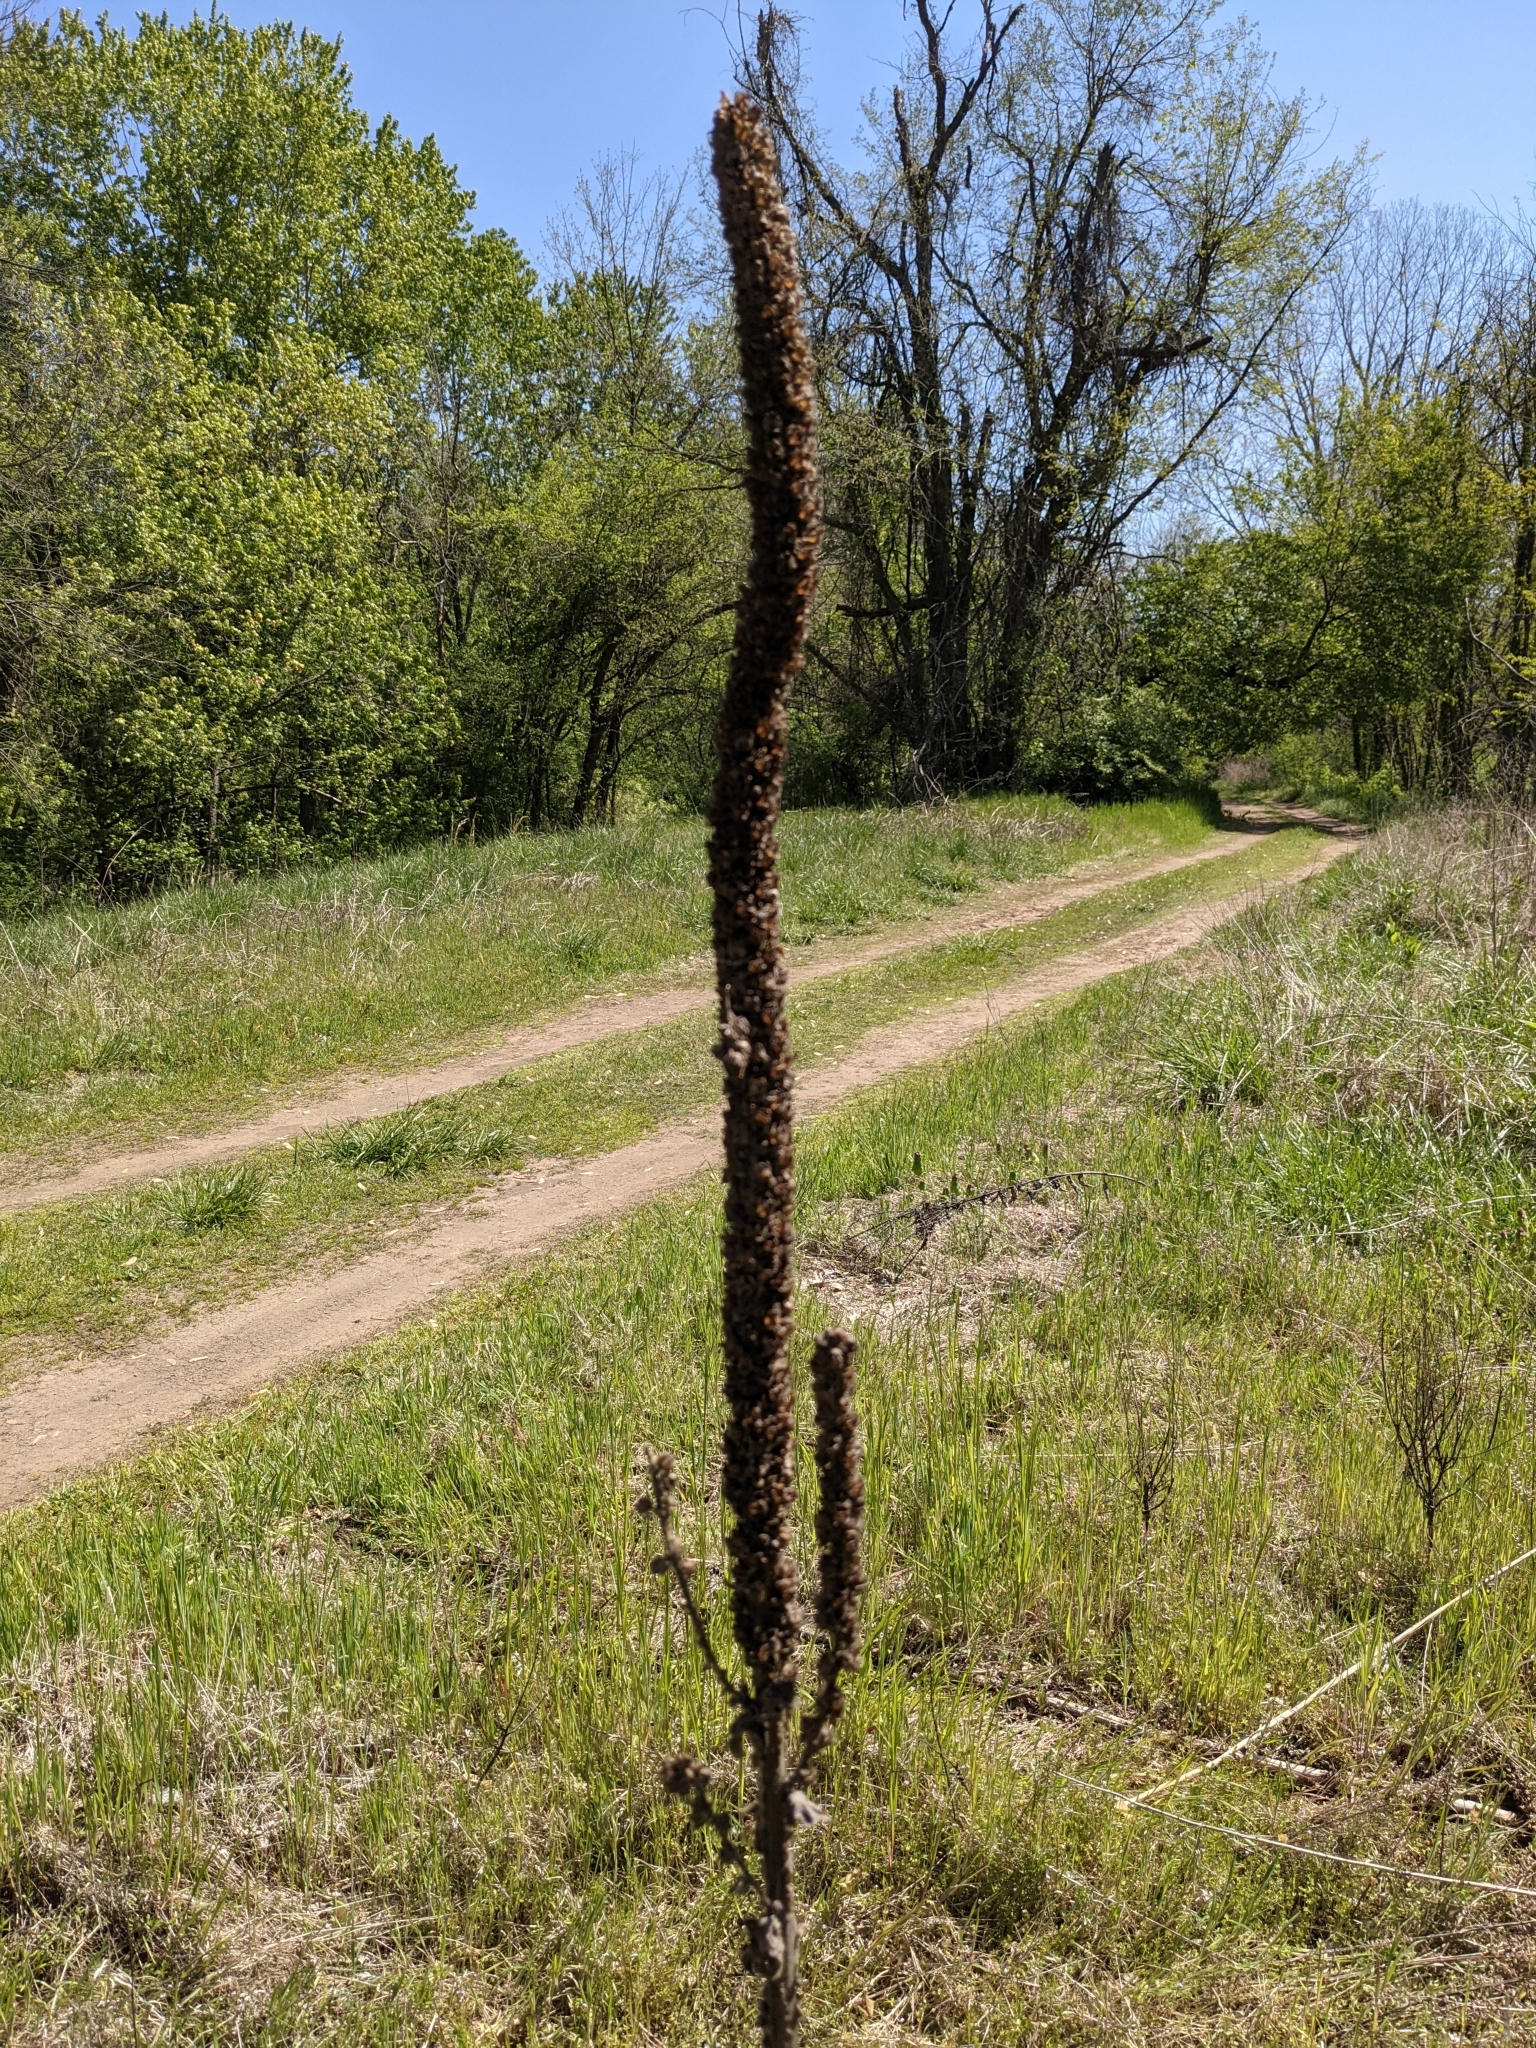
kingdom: Plantae
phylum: Tracheophyta
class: Magnoliopsida
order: Lamiales
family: Scrophulariaceae
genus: Verbascum
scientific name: Verbascum thapsus
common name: Common mullein
